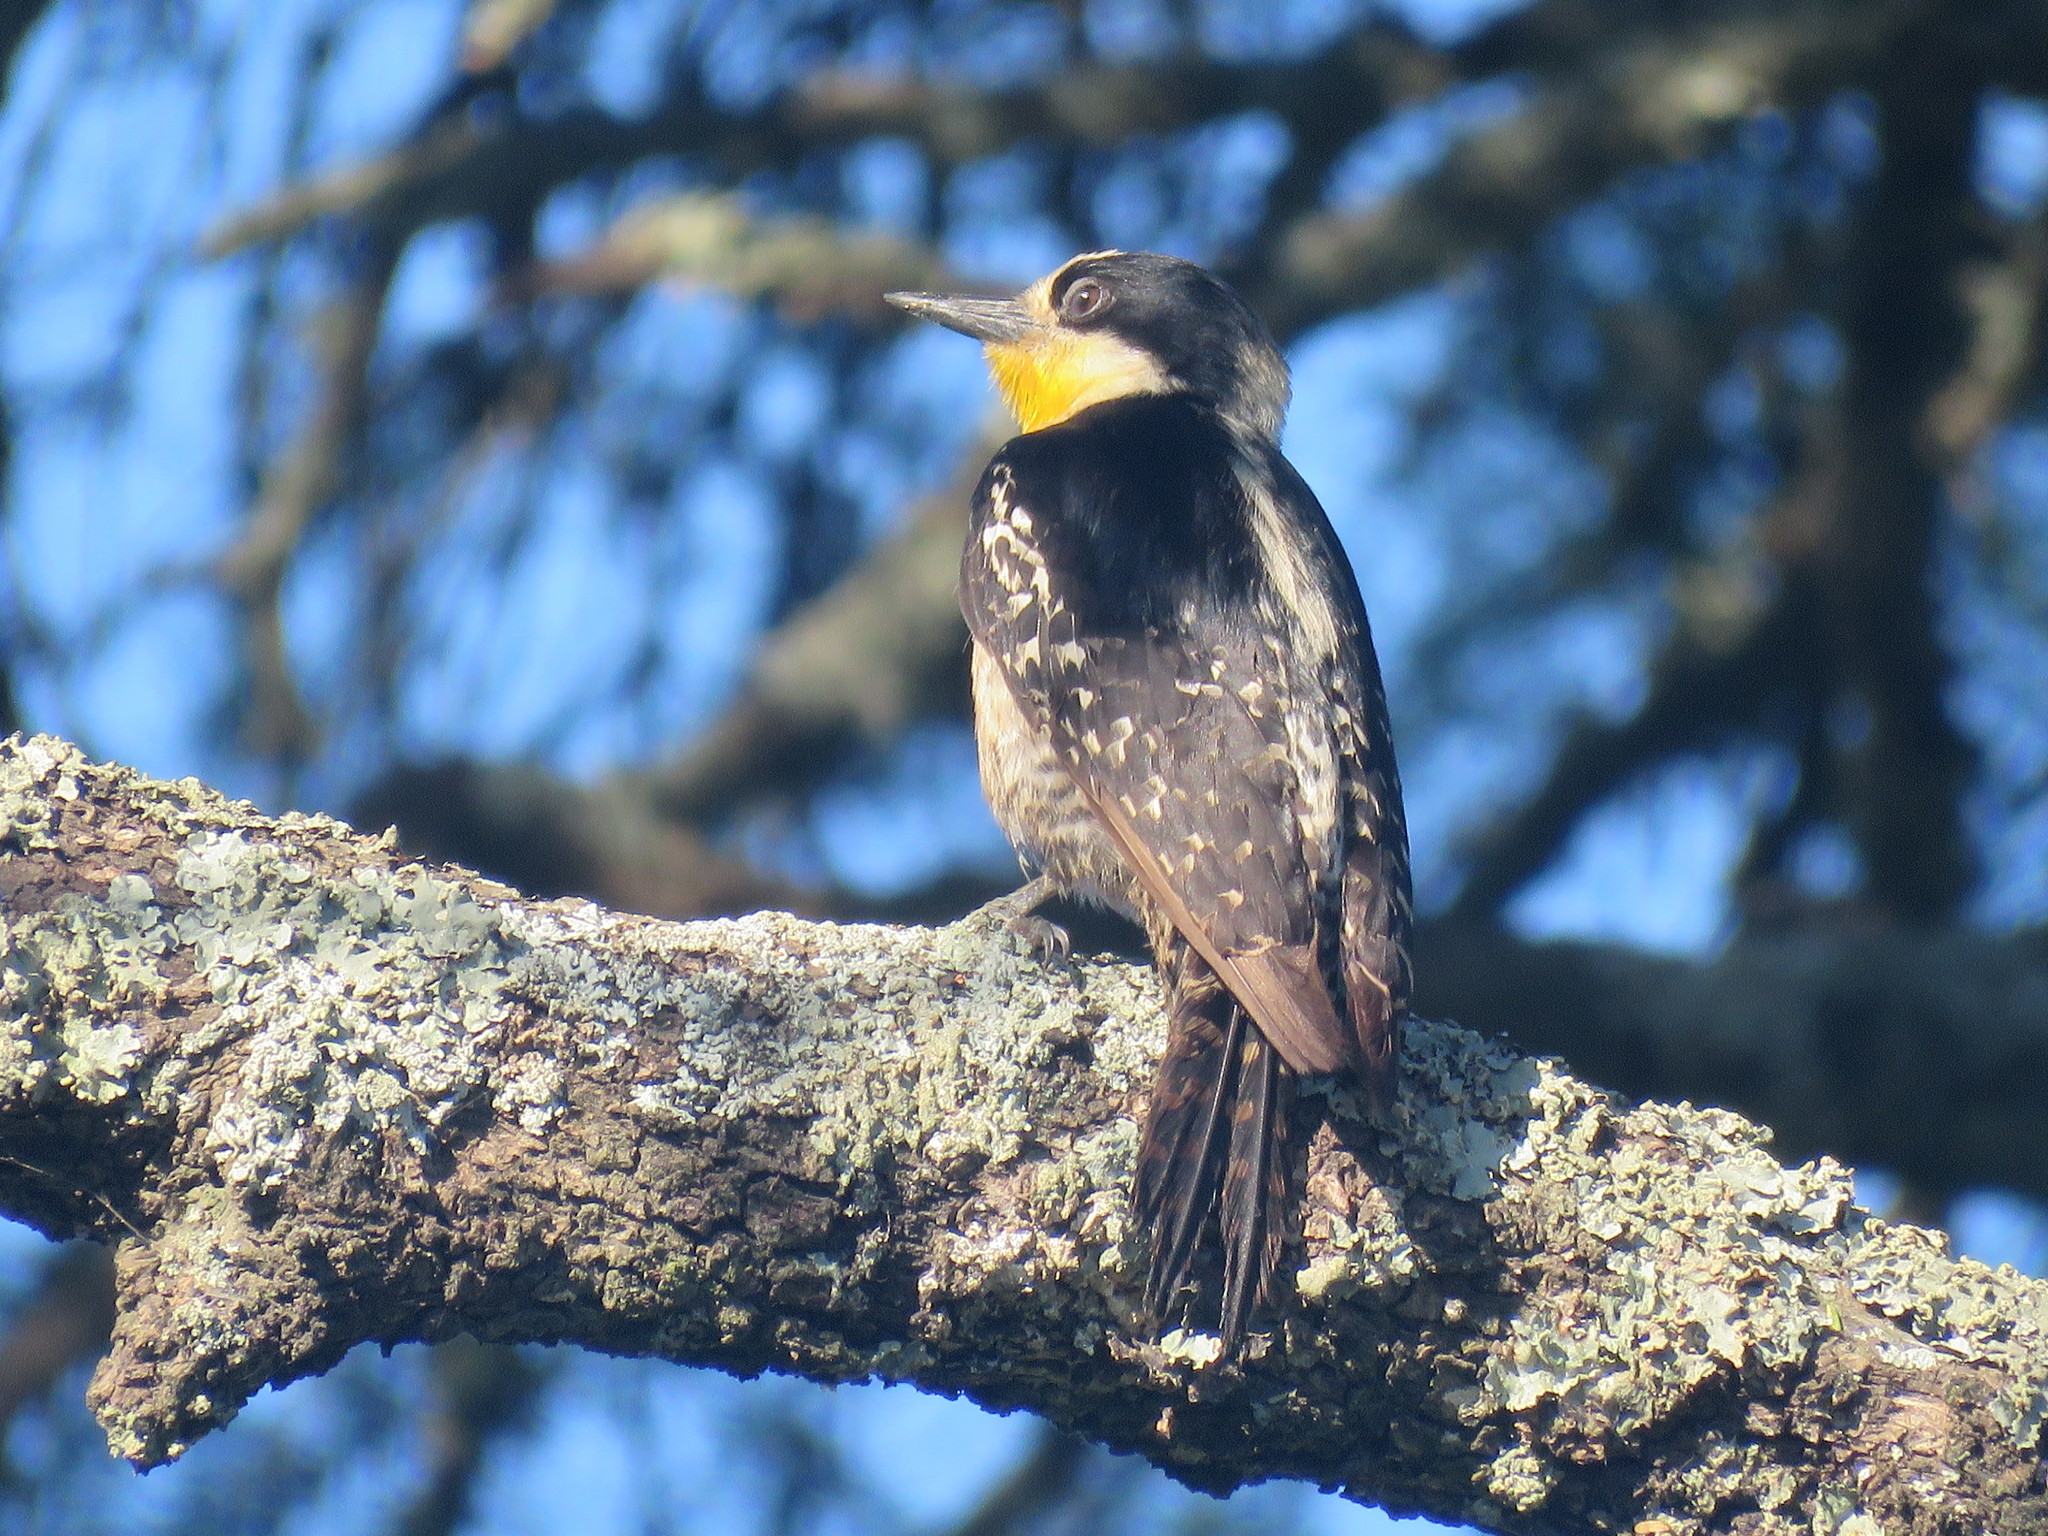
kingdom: Animalia
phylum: Chordata
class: Aves
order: Piciformes
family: Picidae
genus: Melanerpes
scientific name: Melanerpes cactorum
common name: White-fronted woodpecker
